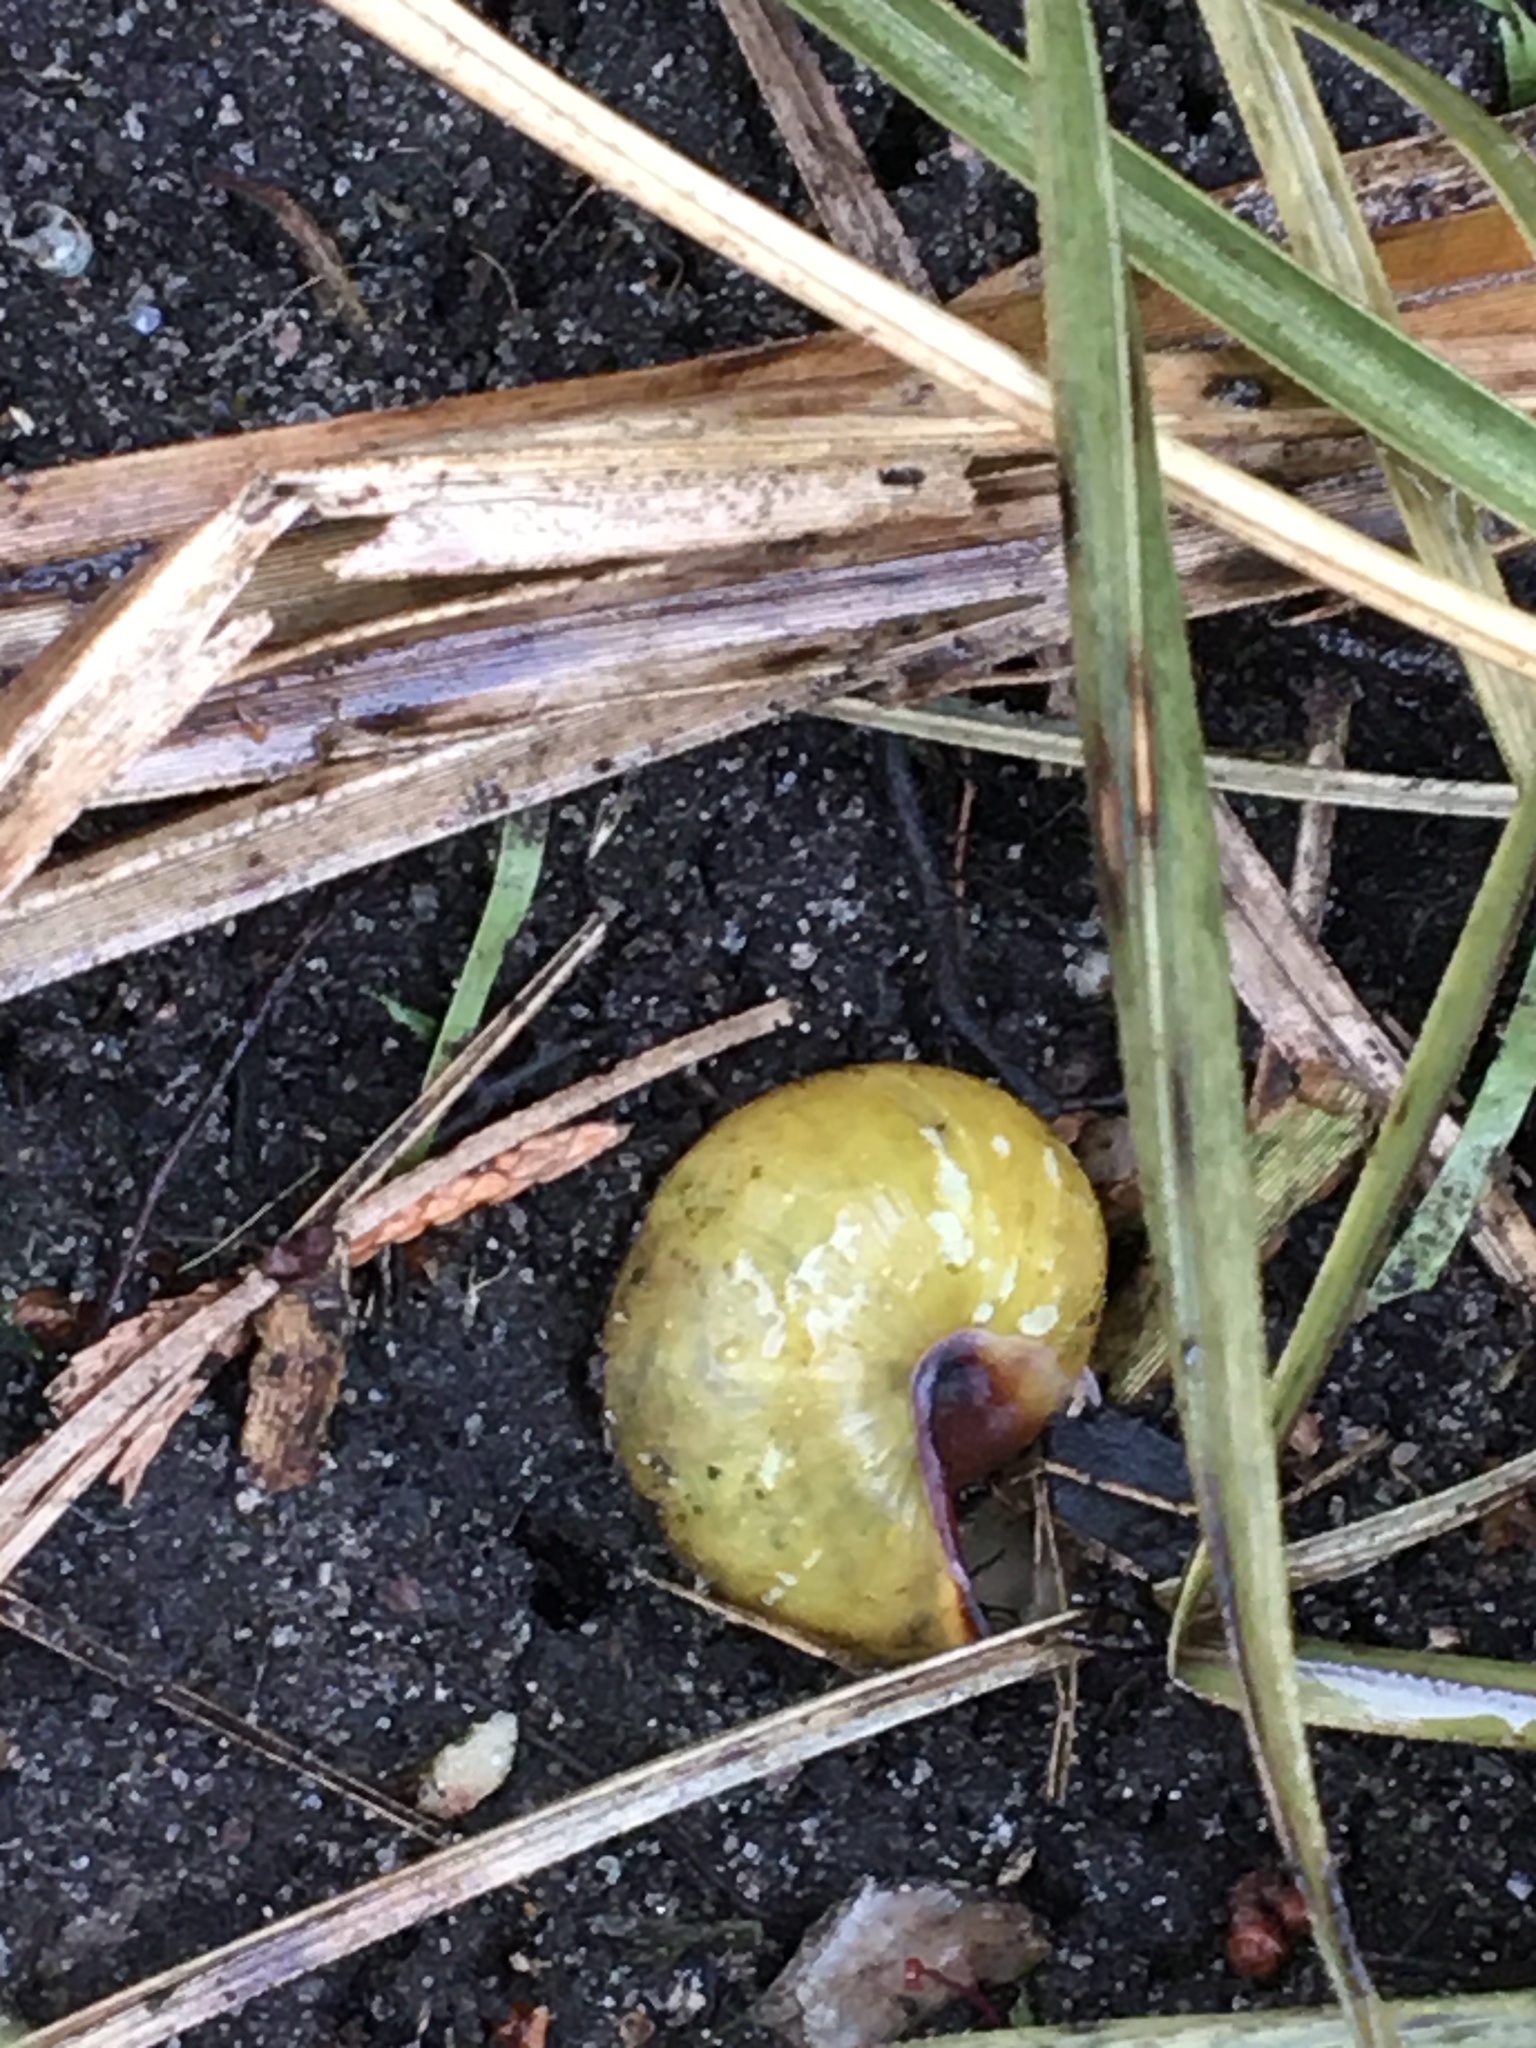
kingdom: Animalia
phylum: Mollusca
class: Gastropoda
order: Stylommatophora
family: Helicidae
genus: Cepaea
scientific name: Cepaea nemoralis
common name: Grovesnail
